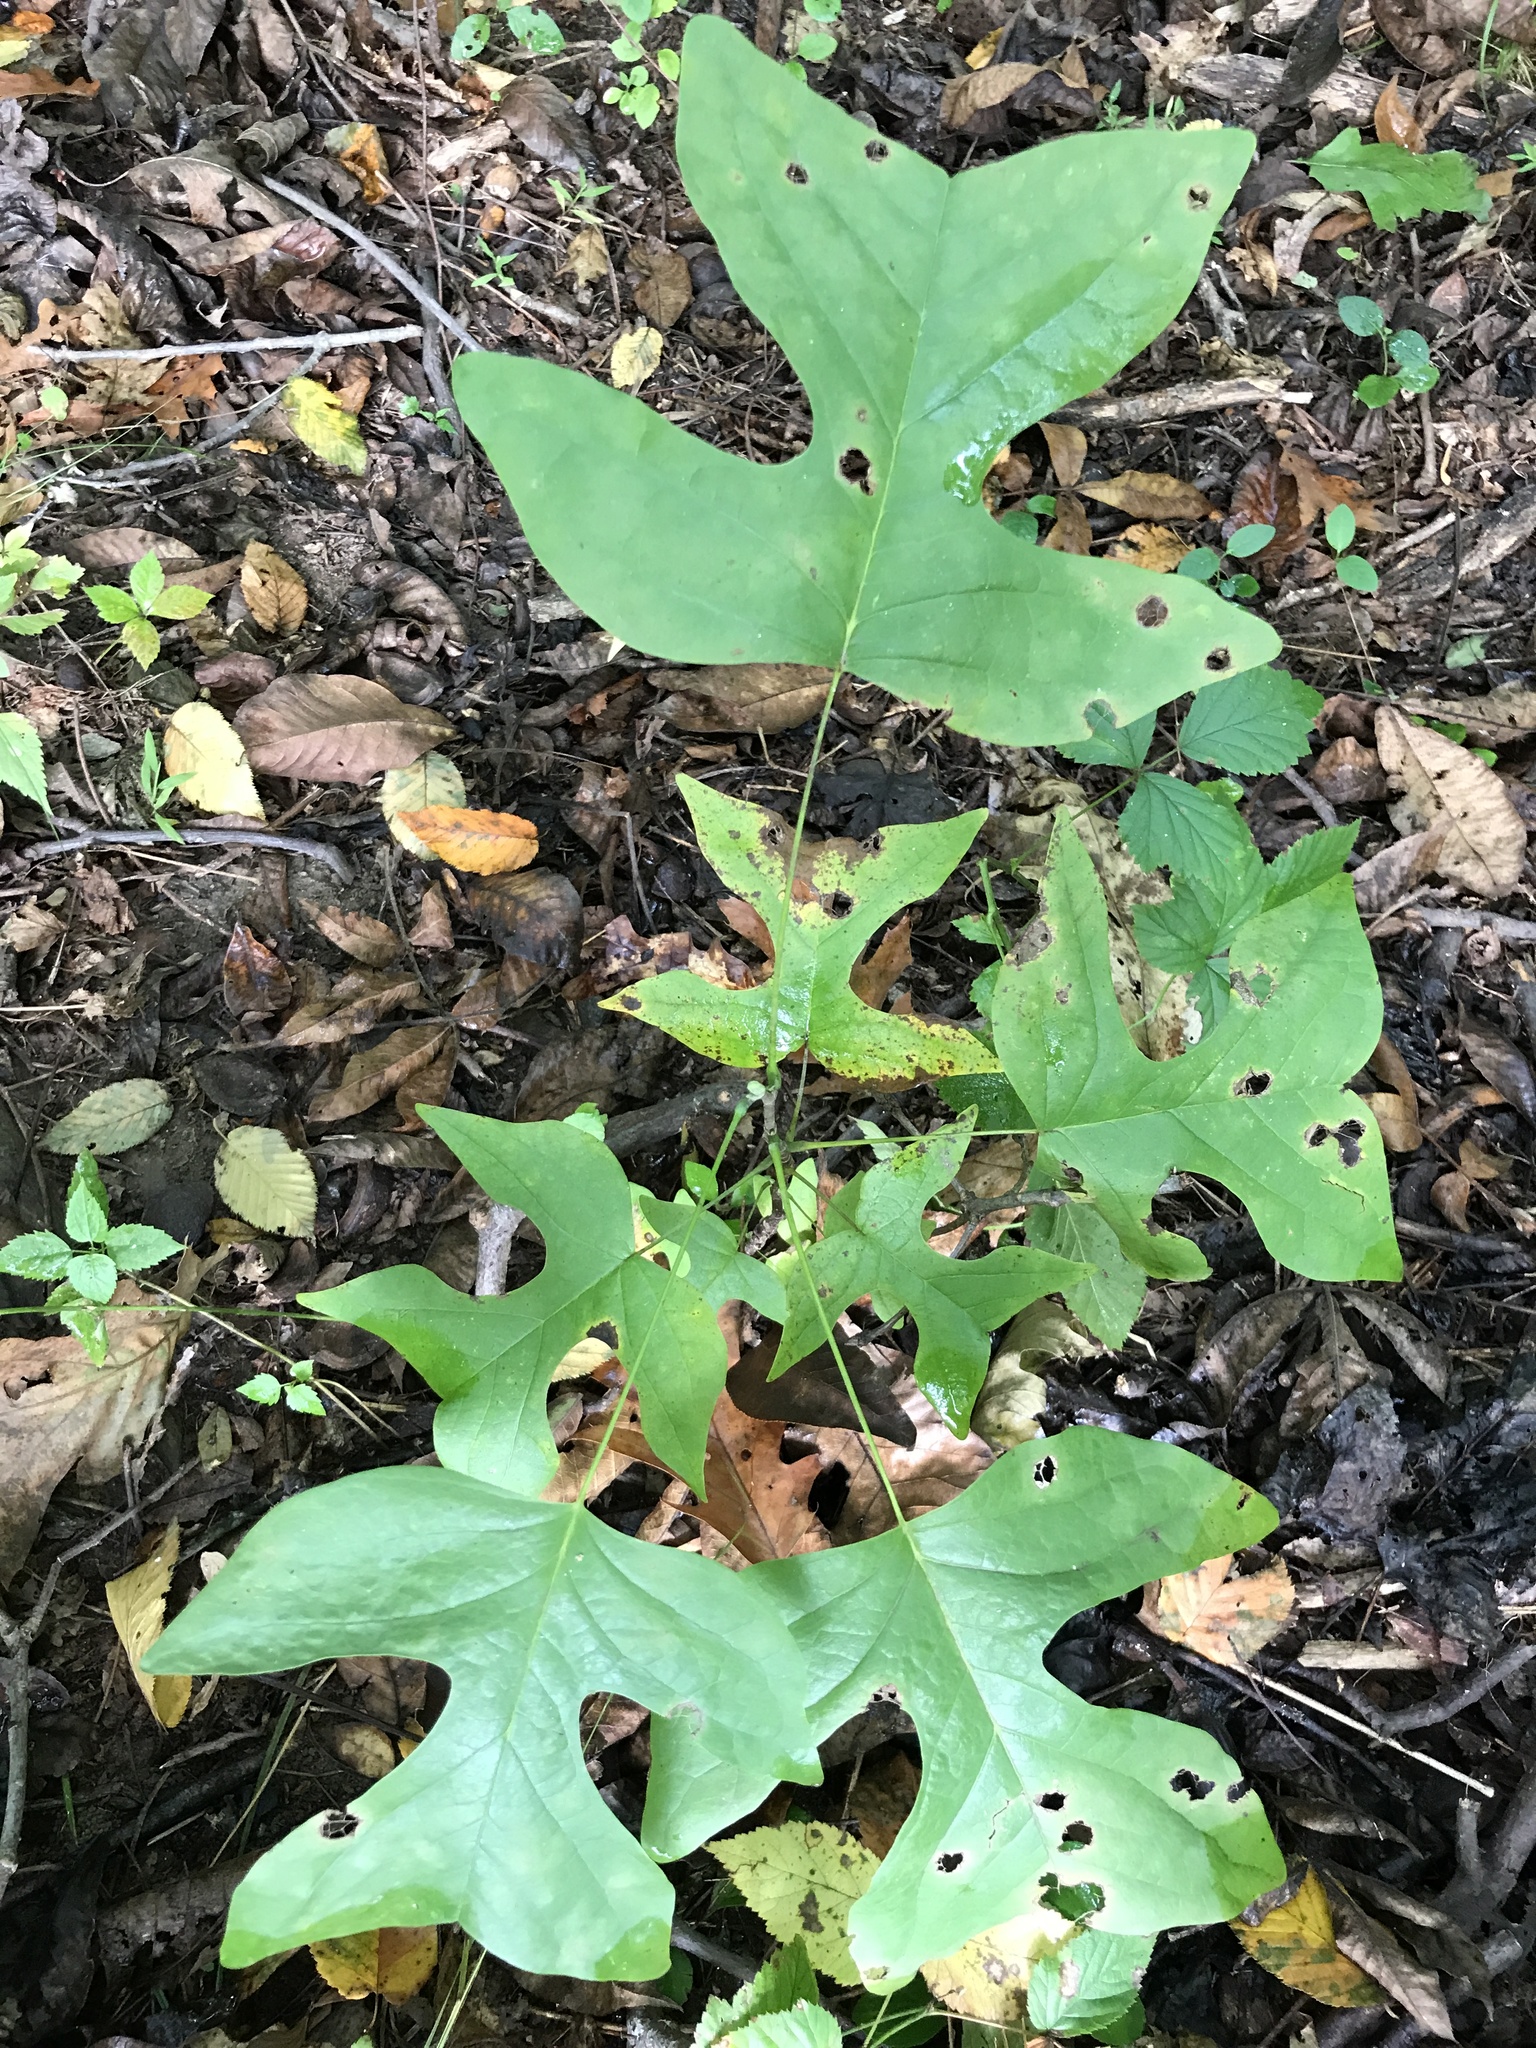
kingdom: Plantae
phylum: Tracheophyta
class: Magnoliopsida
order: Magnoliales
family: Magnoliaceae
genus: Liriodendron
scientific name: Liriodendron tulipifera
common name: Tulip tree
